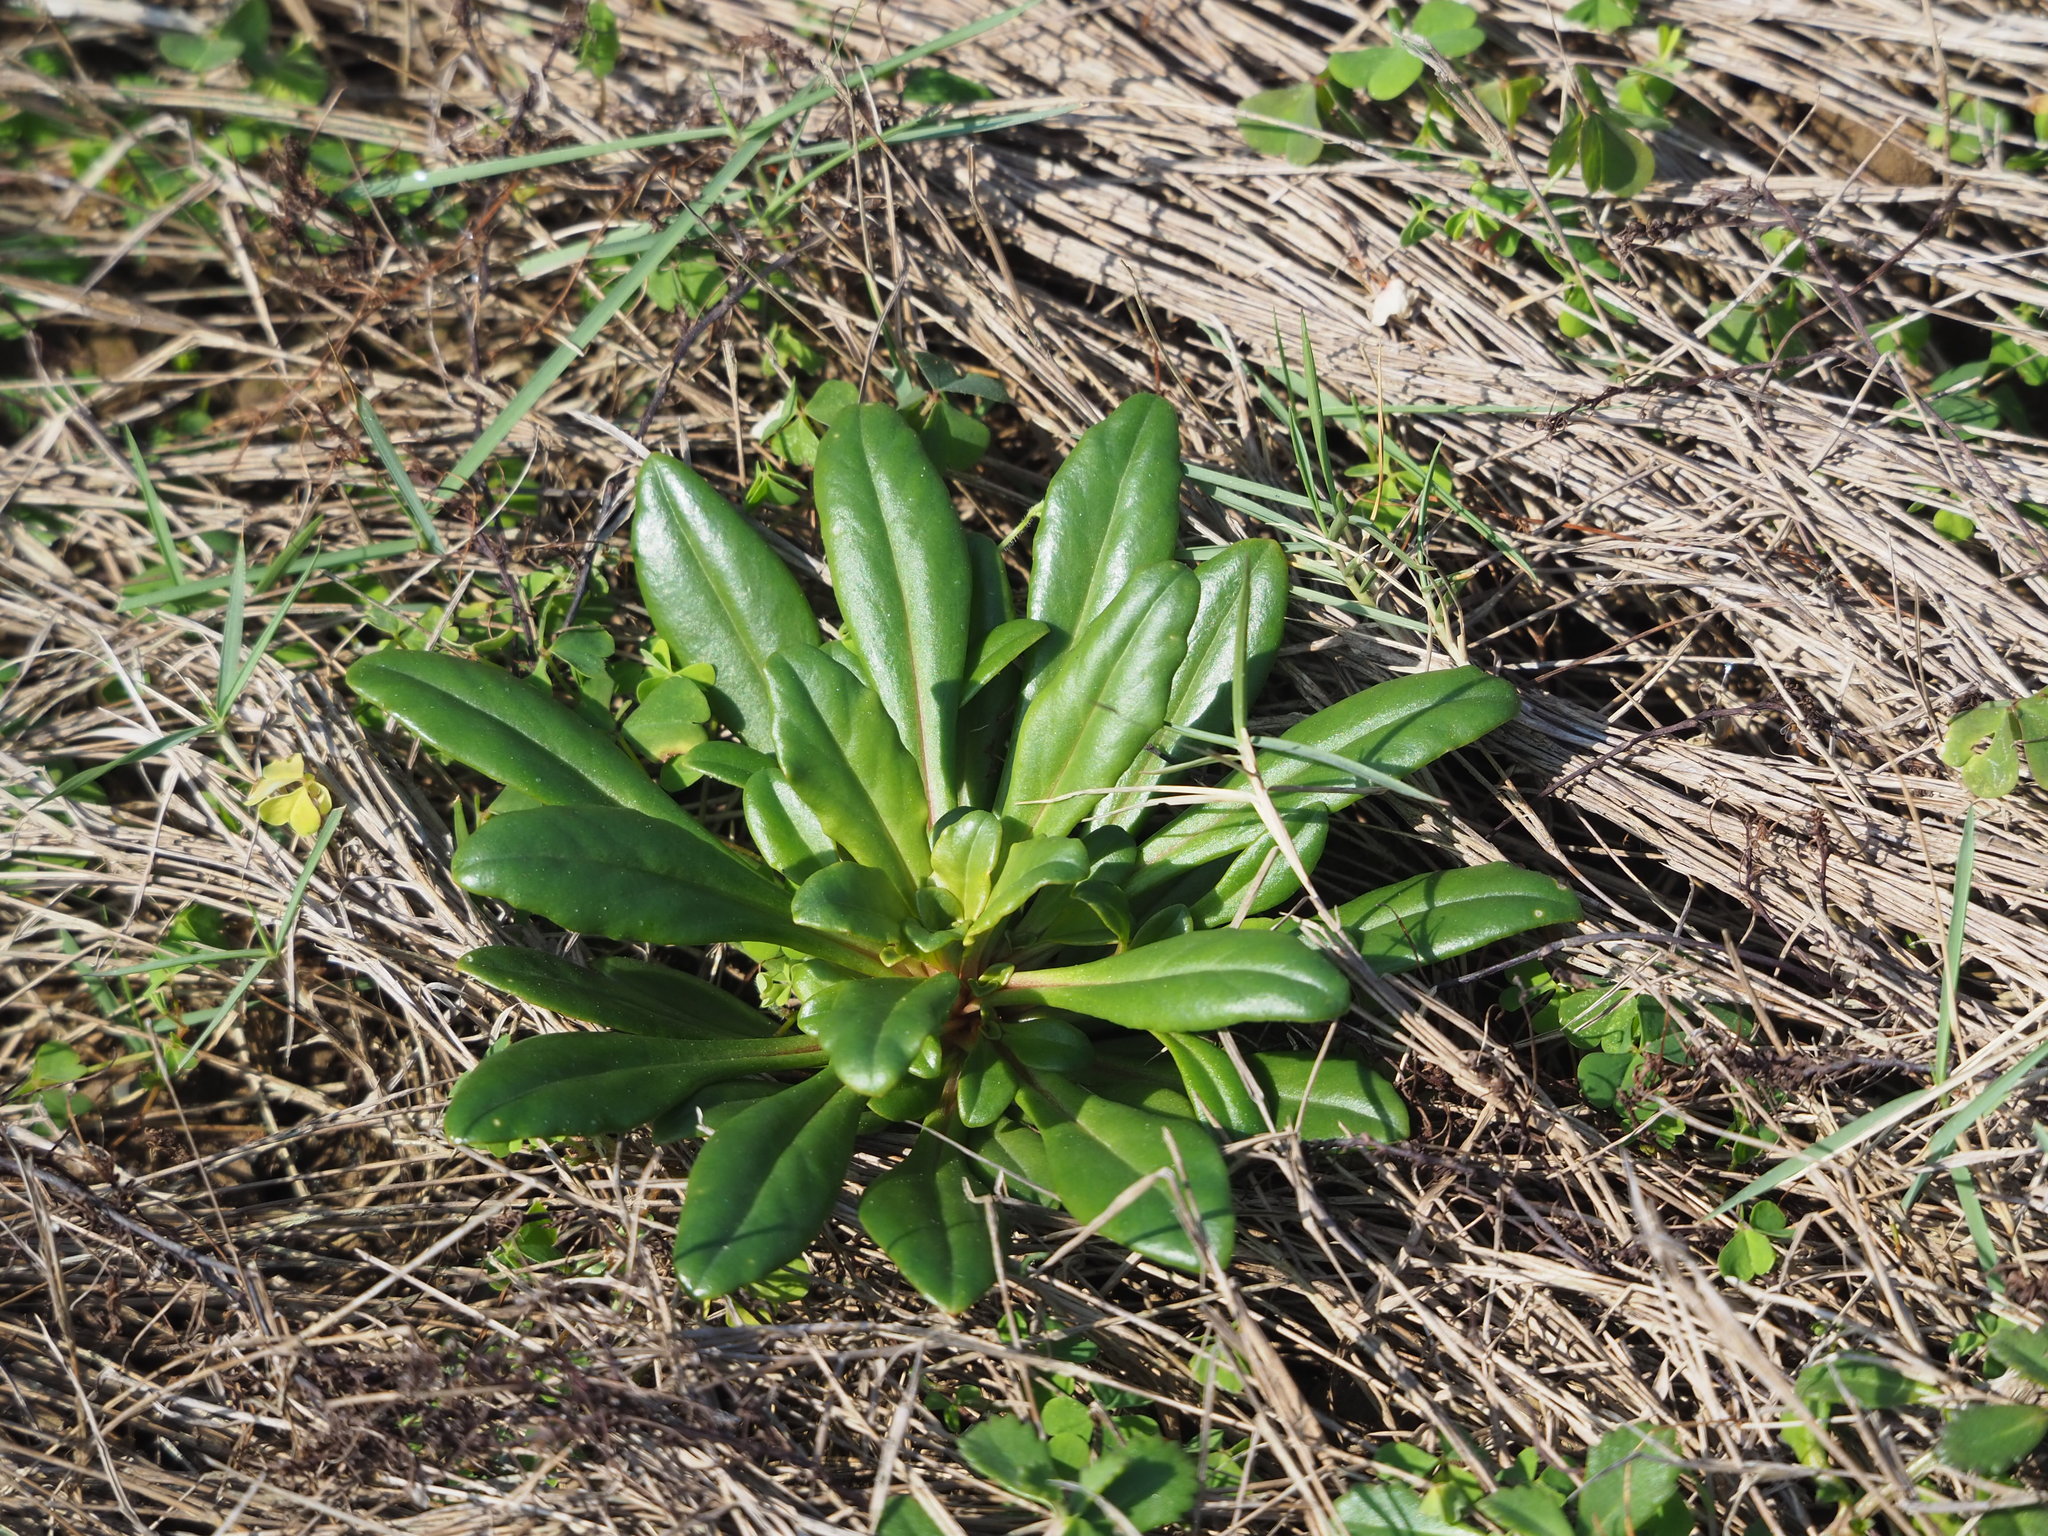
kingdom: Plantae
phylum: Tracheophyta
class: Magnoliopsida
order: Ericales
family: Primulaceae
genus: Lysimachia
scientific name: Lysimachia mauritiana
